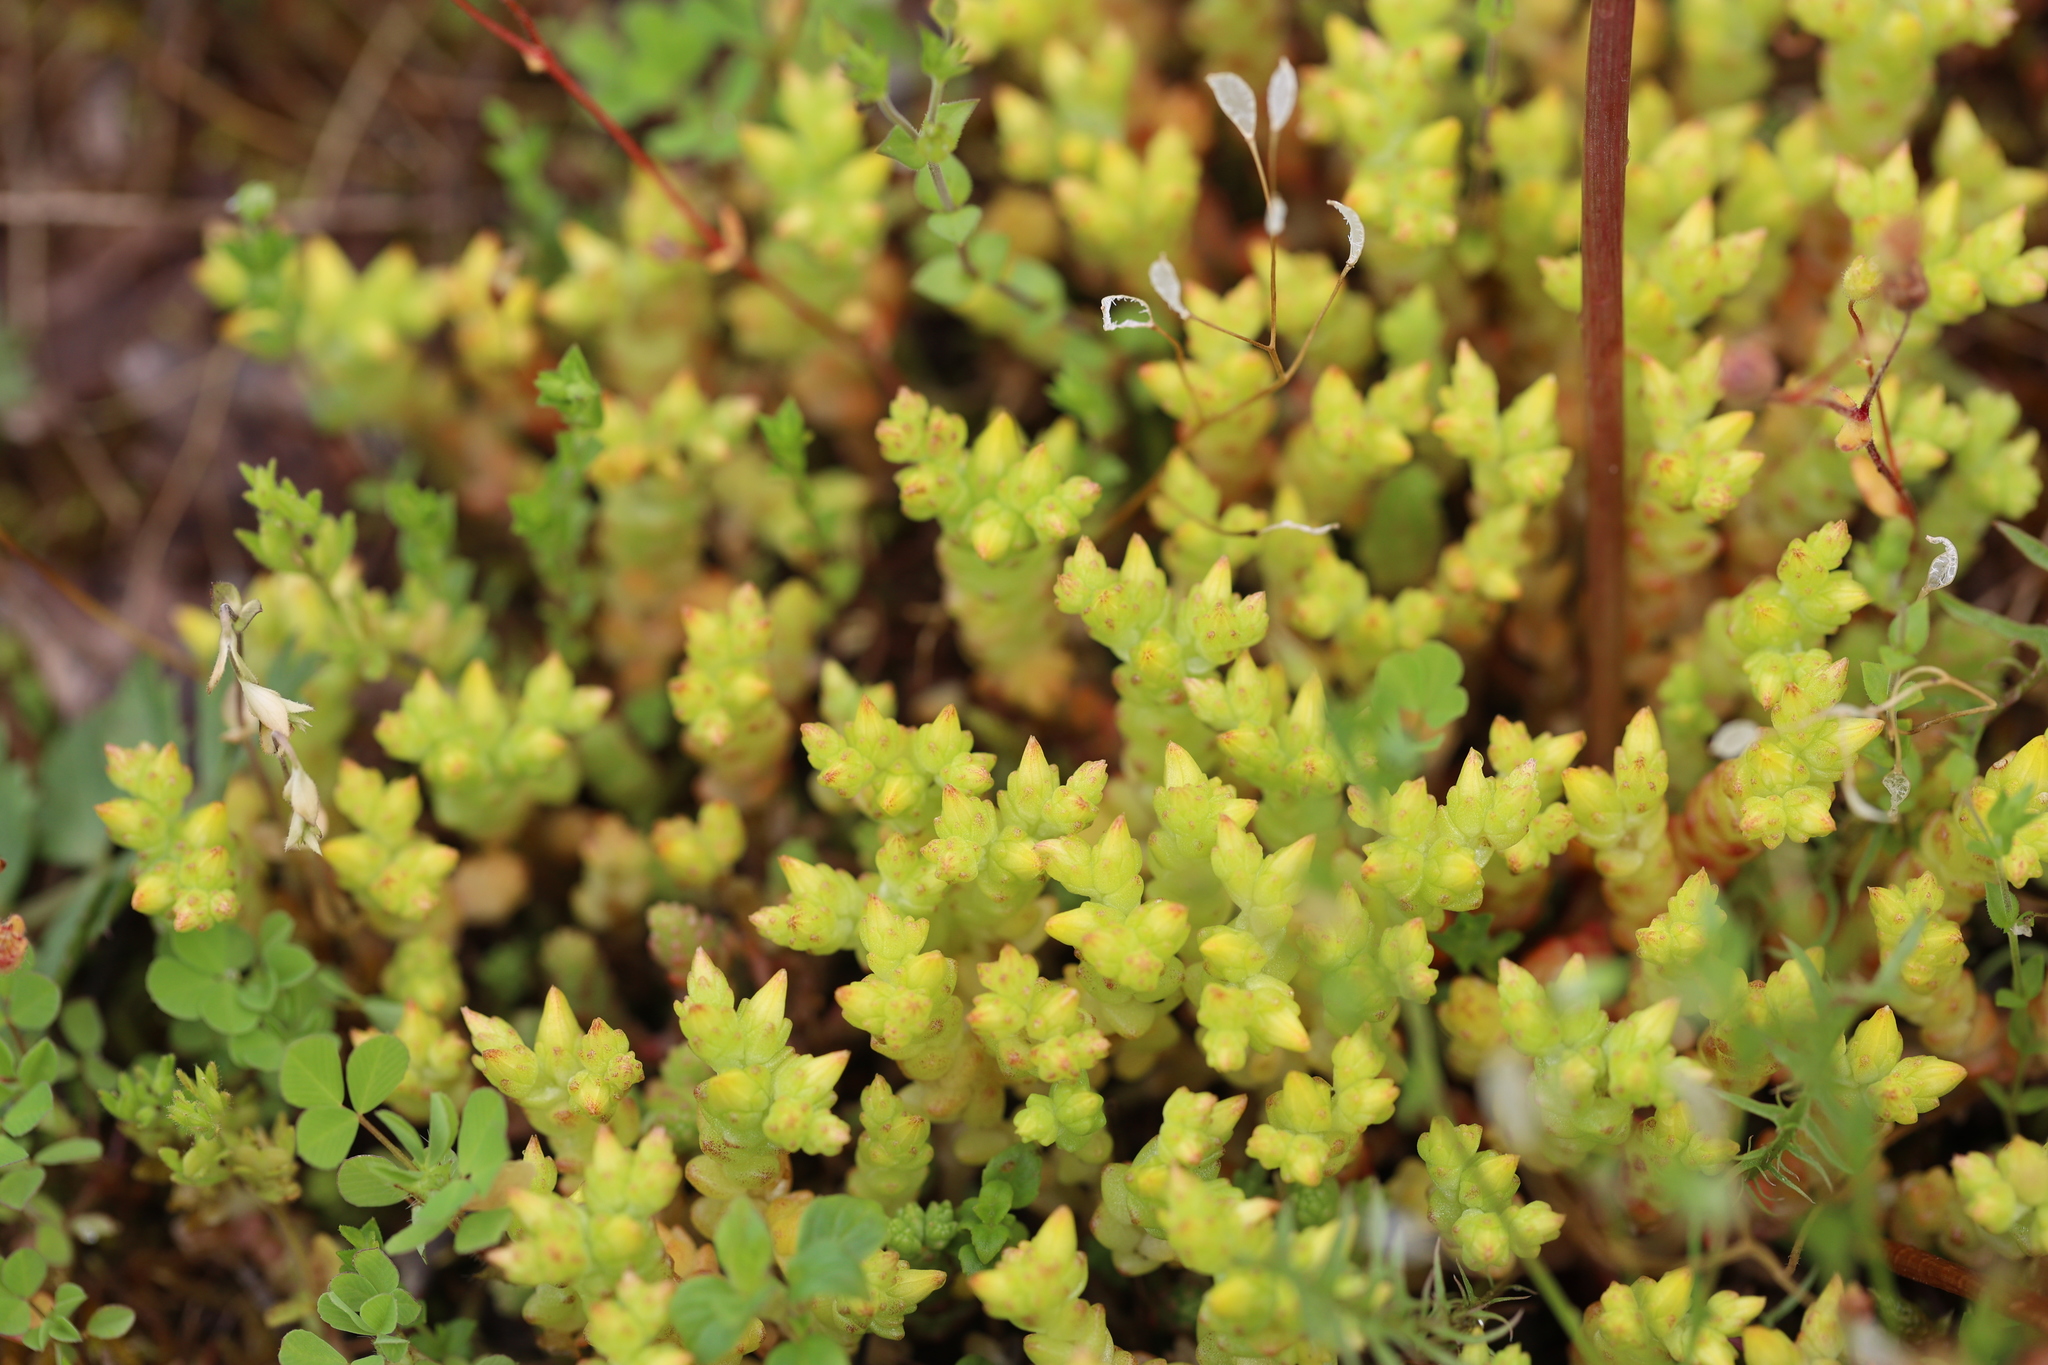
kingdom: Plantae
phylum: Tracheophyta
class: Magnoliopsida
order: Saxifragales
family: Crassulaceae
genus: Sedum
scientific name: Sedum acre
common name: Biting stonecrop
